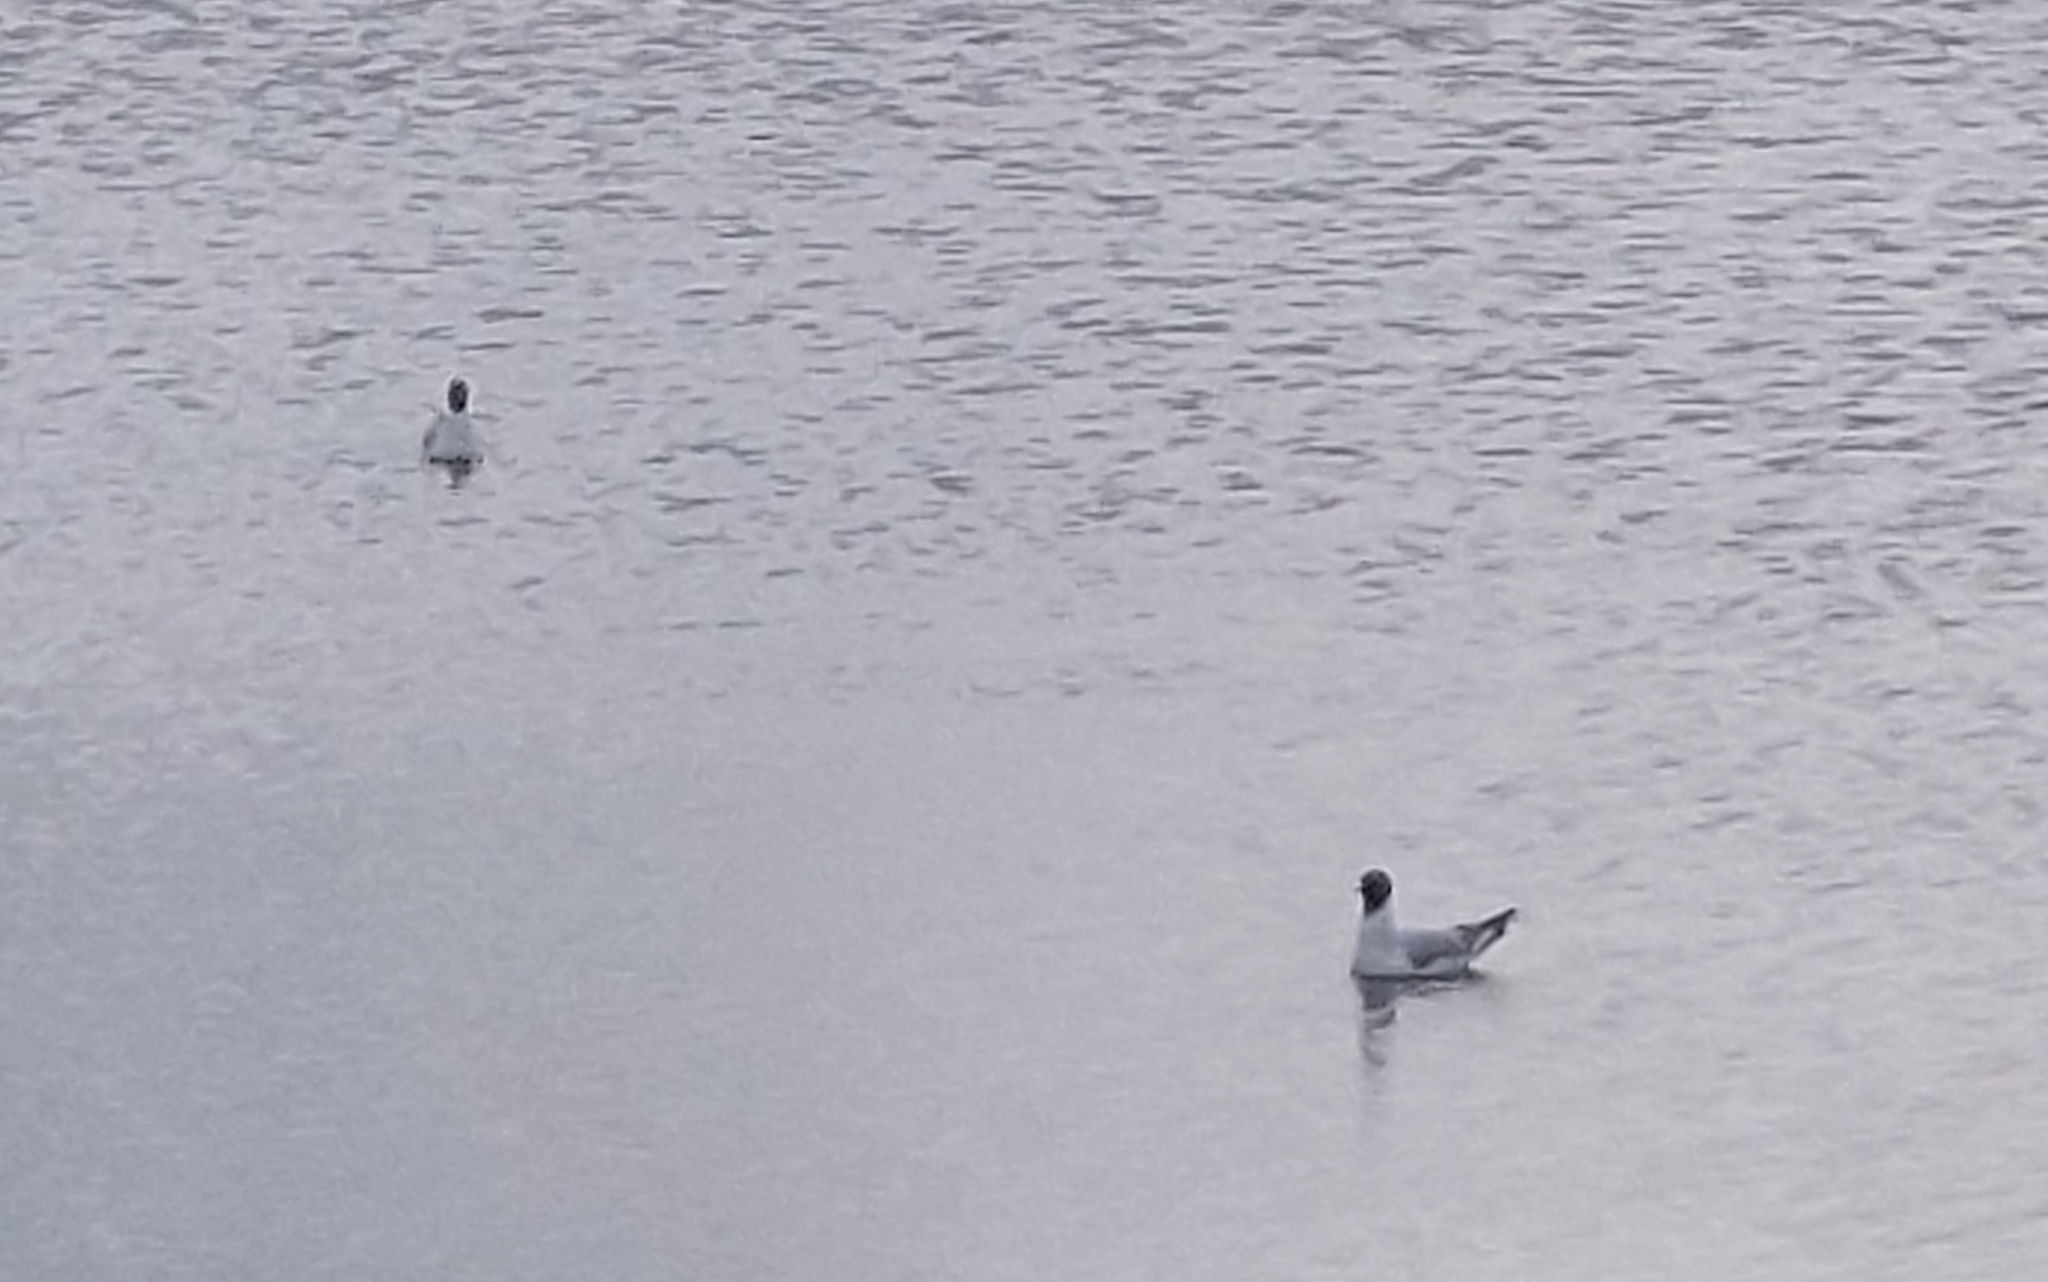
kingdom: Animalia
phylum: Chordata
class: Aves
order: Charadriiformes
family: Laridae
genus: Chroicocephalus
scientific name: Chroicocephalus ridibundus
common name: Black-headed gull
